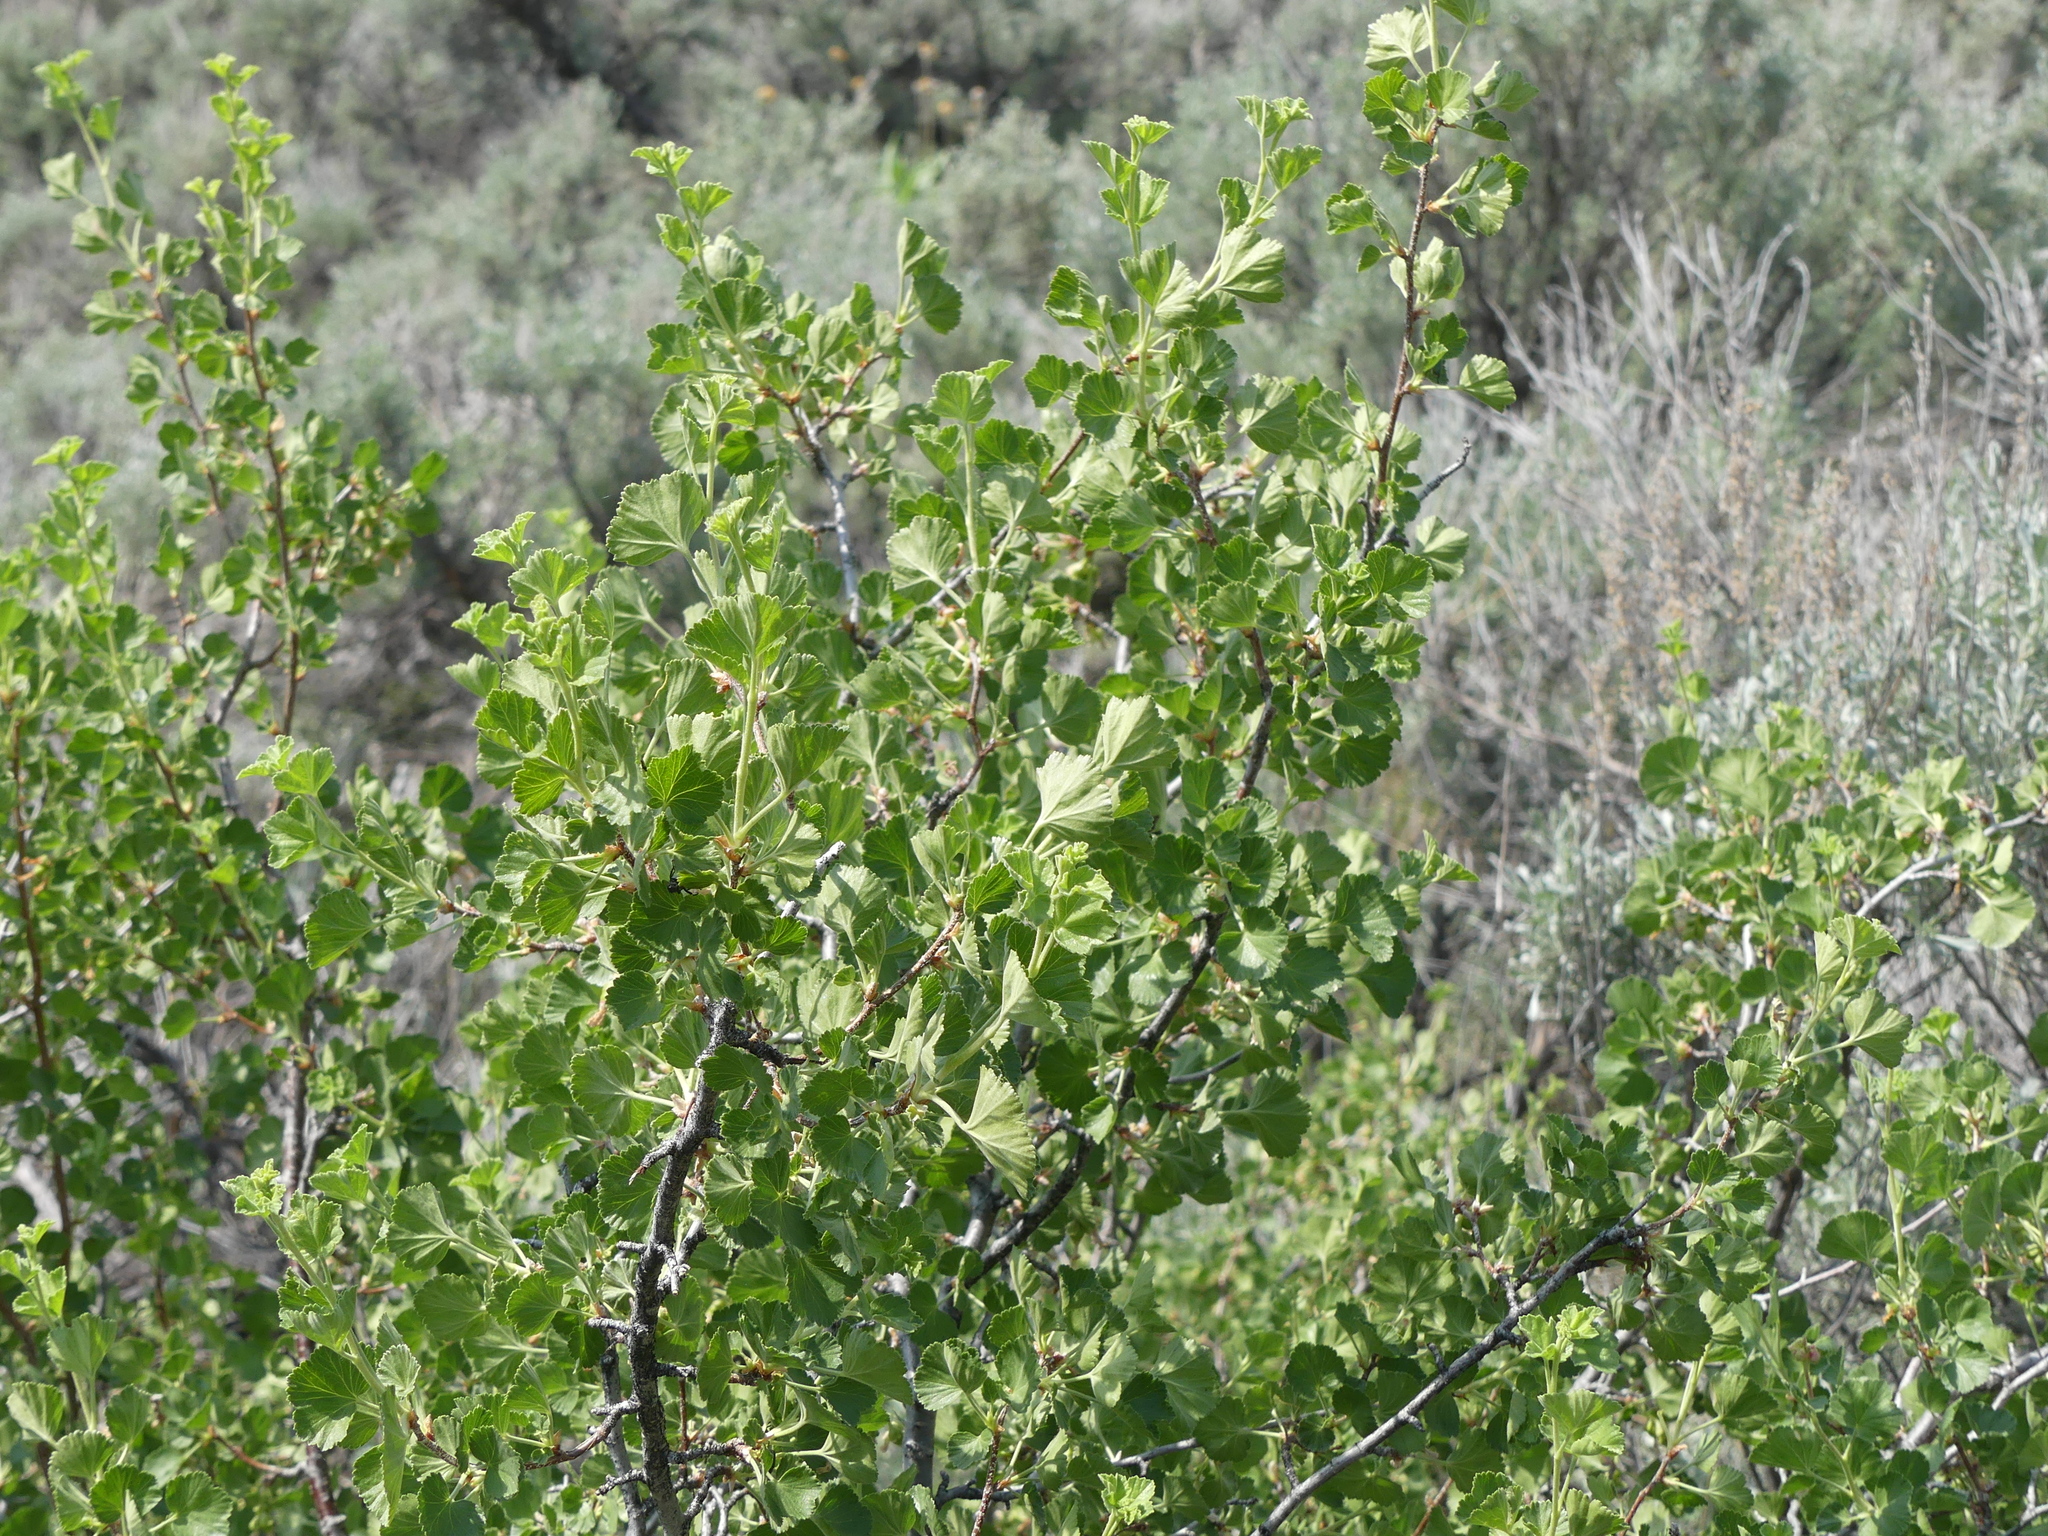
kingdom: Plantae
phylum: Tracheophyta
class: Magnoliopsida
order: Saxifragales
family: Grossulariaceae
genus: Ribes
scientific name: Ribes cereum
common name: Wax currant
